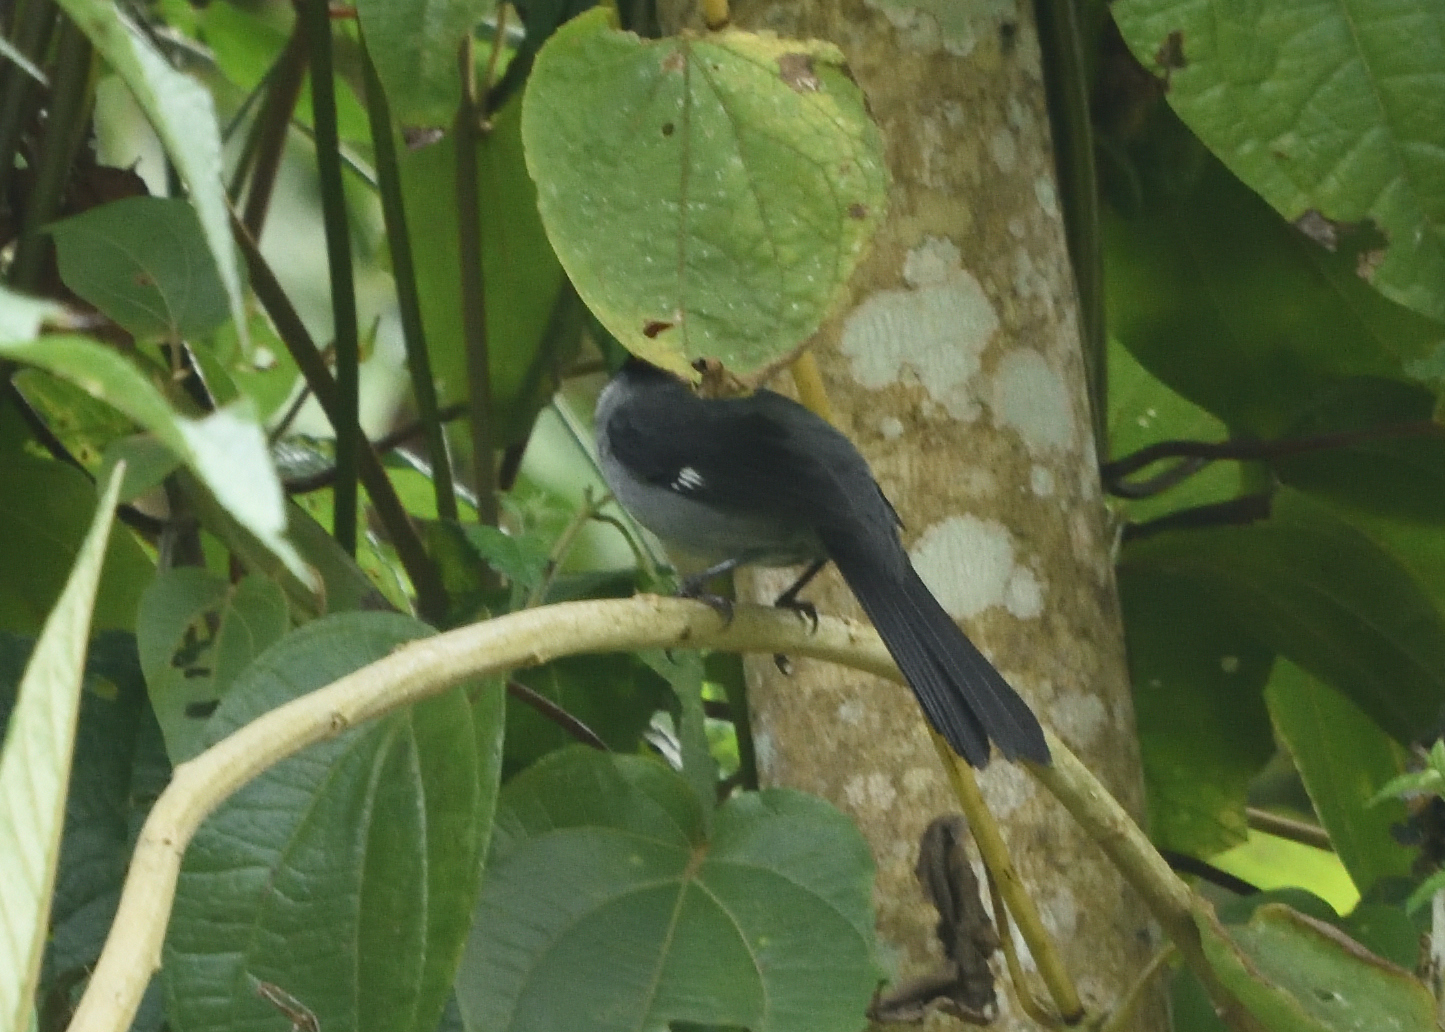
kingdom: Animalia
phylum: Chordata
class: Aves
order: Passeriformes
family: Passerellidae
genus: Atlapetes
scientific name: Atlapetes schistaceus
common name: Slaty brushfinch
